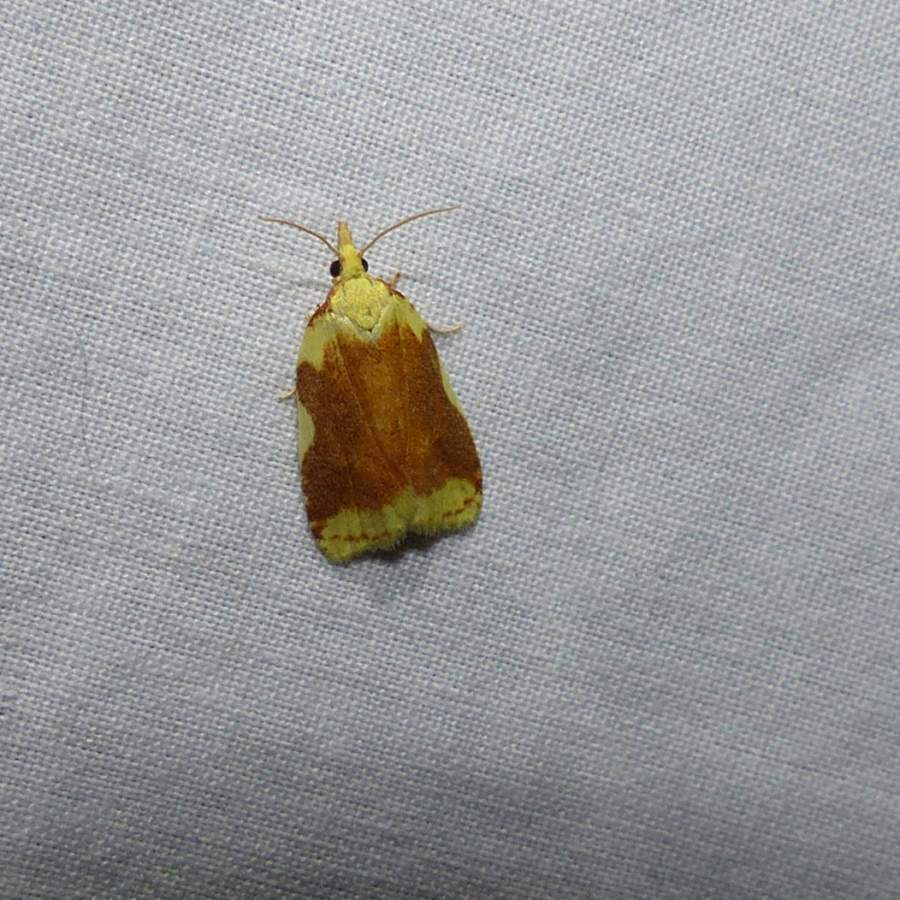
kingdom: Animalia
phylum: Arthropoda
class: Insecta
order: Lepidoptera
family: Tortricidae
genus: Cenopis
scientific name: Cenopis niveana
